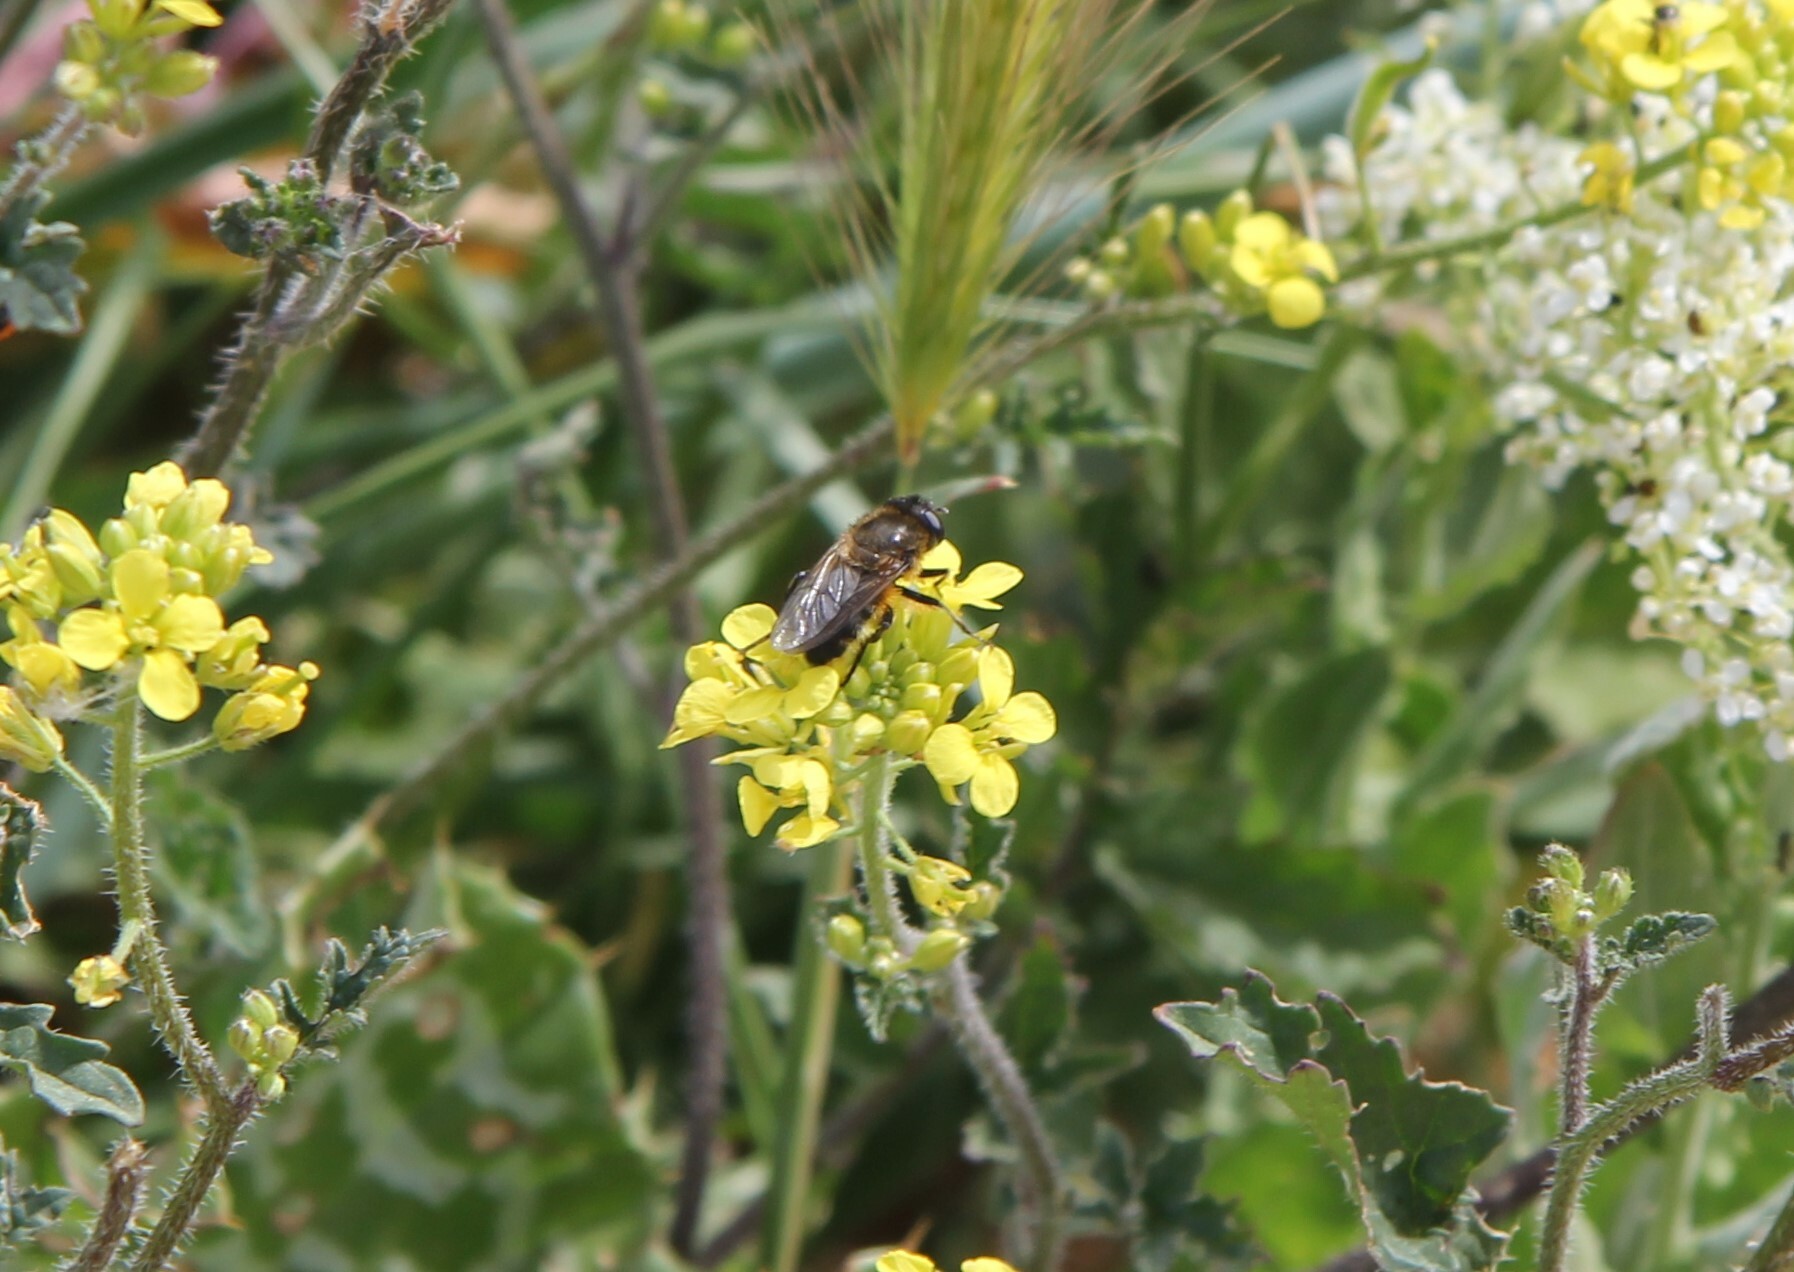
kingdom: Animalia
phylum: Arthropoda
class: Insecta
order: Diptera
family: Syrphidae
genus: Merodon
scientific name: Merodon setosus
